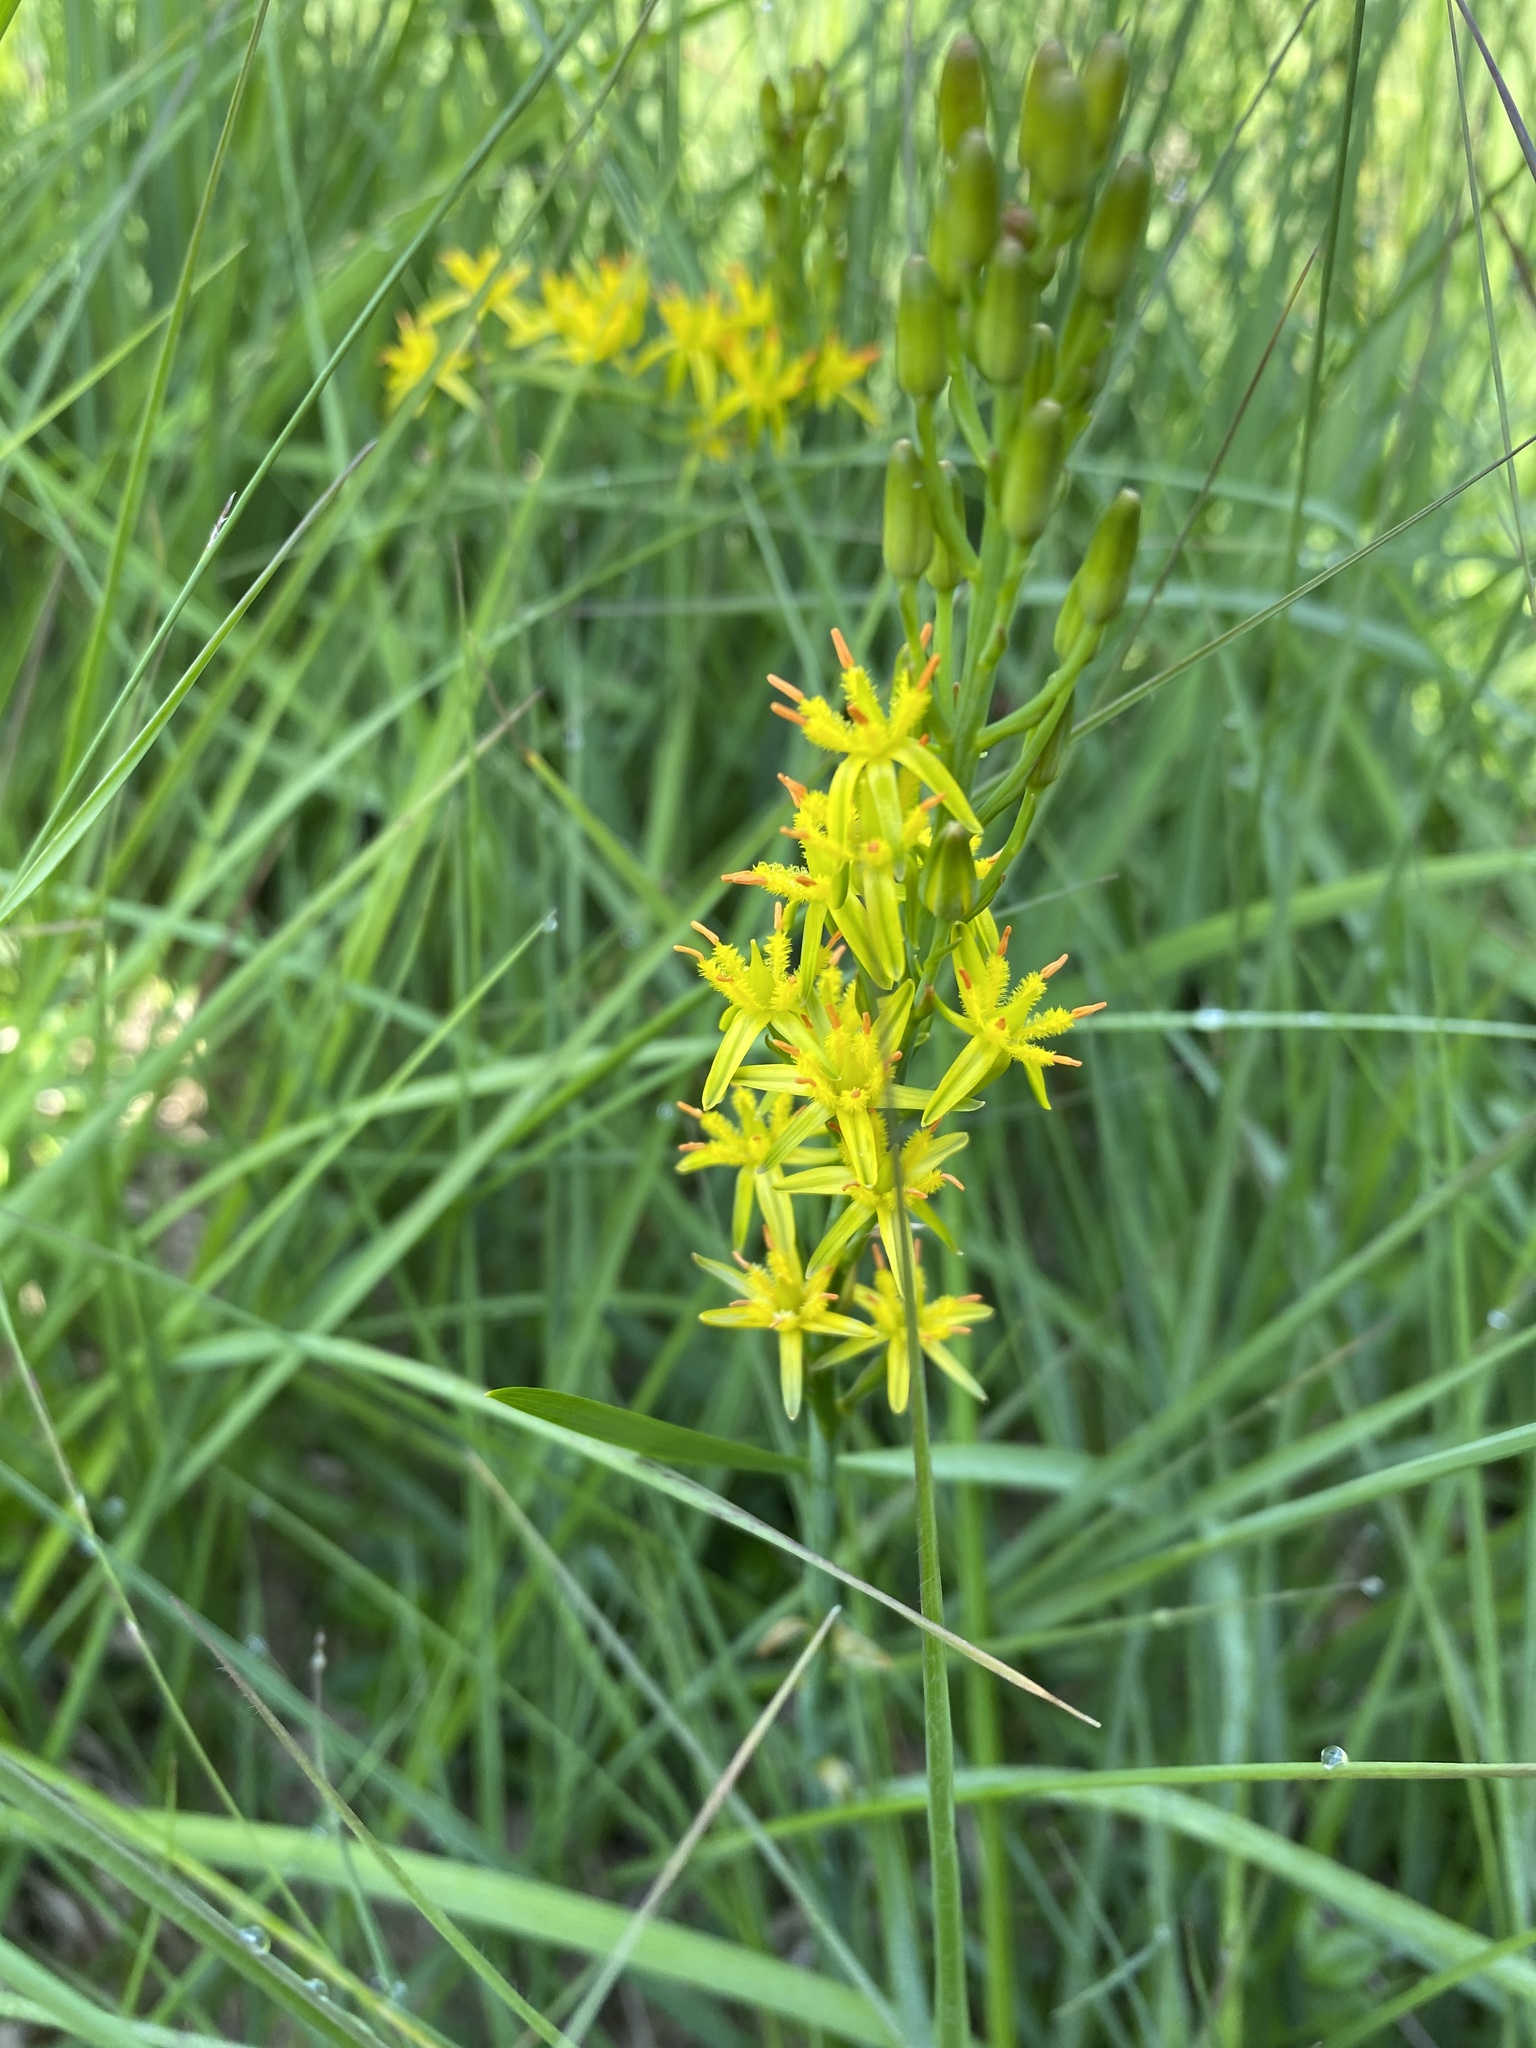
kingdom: Plantae
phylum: Tracheophyta
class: Liliopsida
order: Dioscoreales
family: Nartheciaceae
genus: Narthecium
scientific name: Narthecium ossifragum
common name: Bog asphodel
